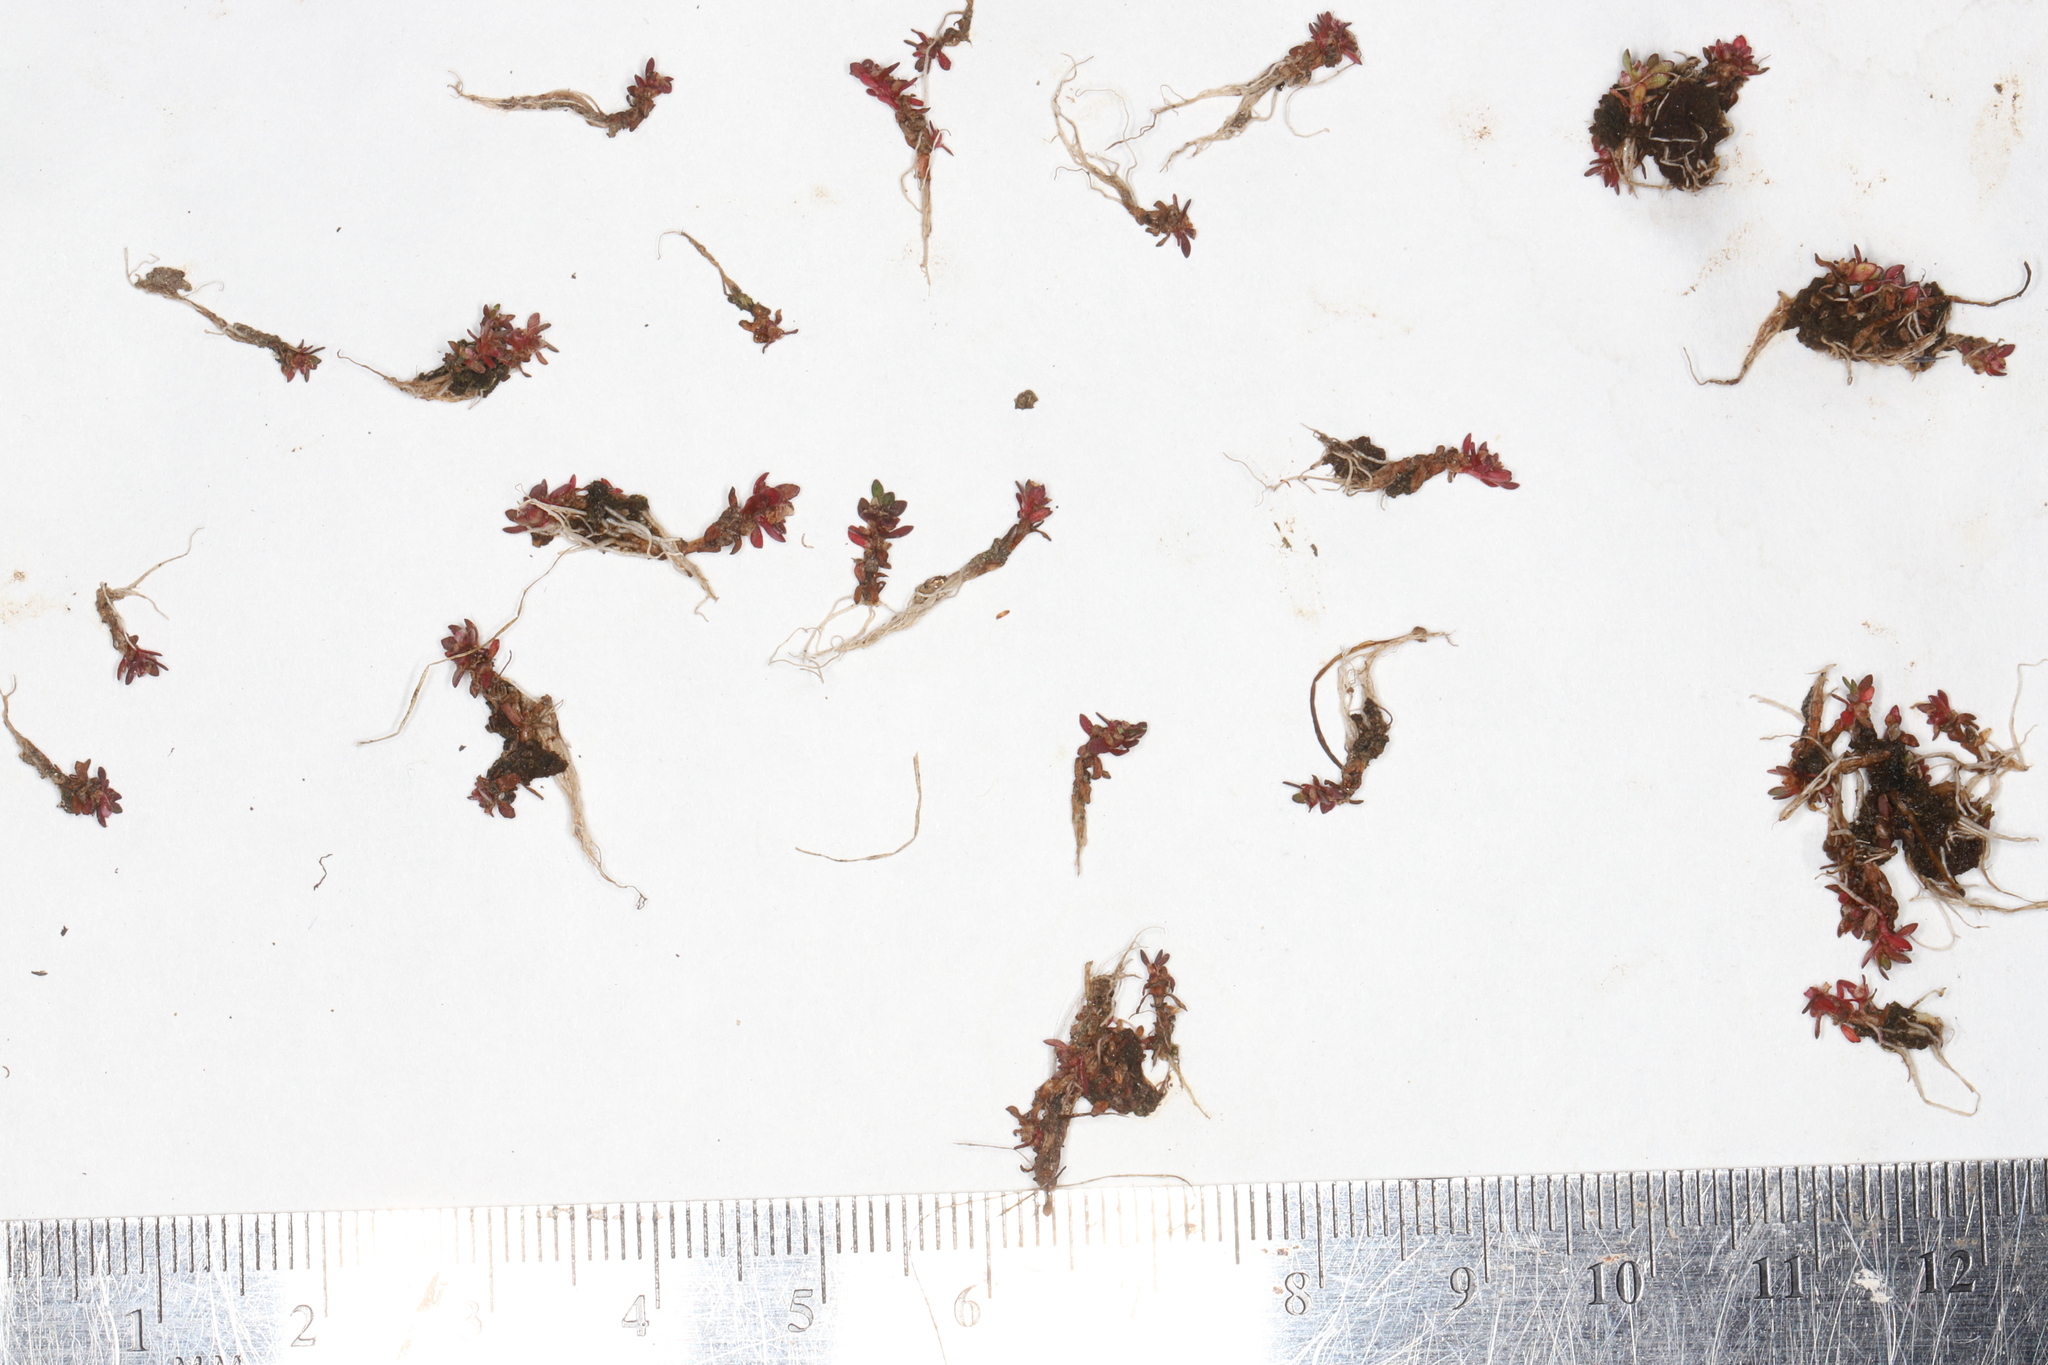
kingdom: Plantae
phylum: Tracheophyta
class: Magnoliopsida
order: Malpighiales
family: Elatinaceae
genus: Elatine
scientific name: Elatine americana
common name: American waterwort
